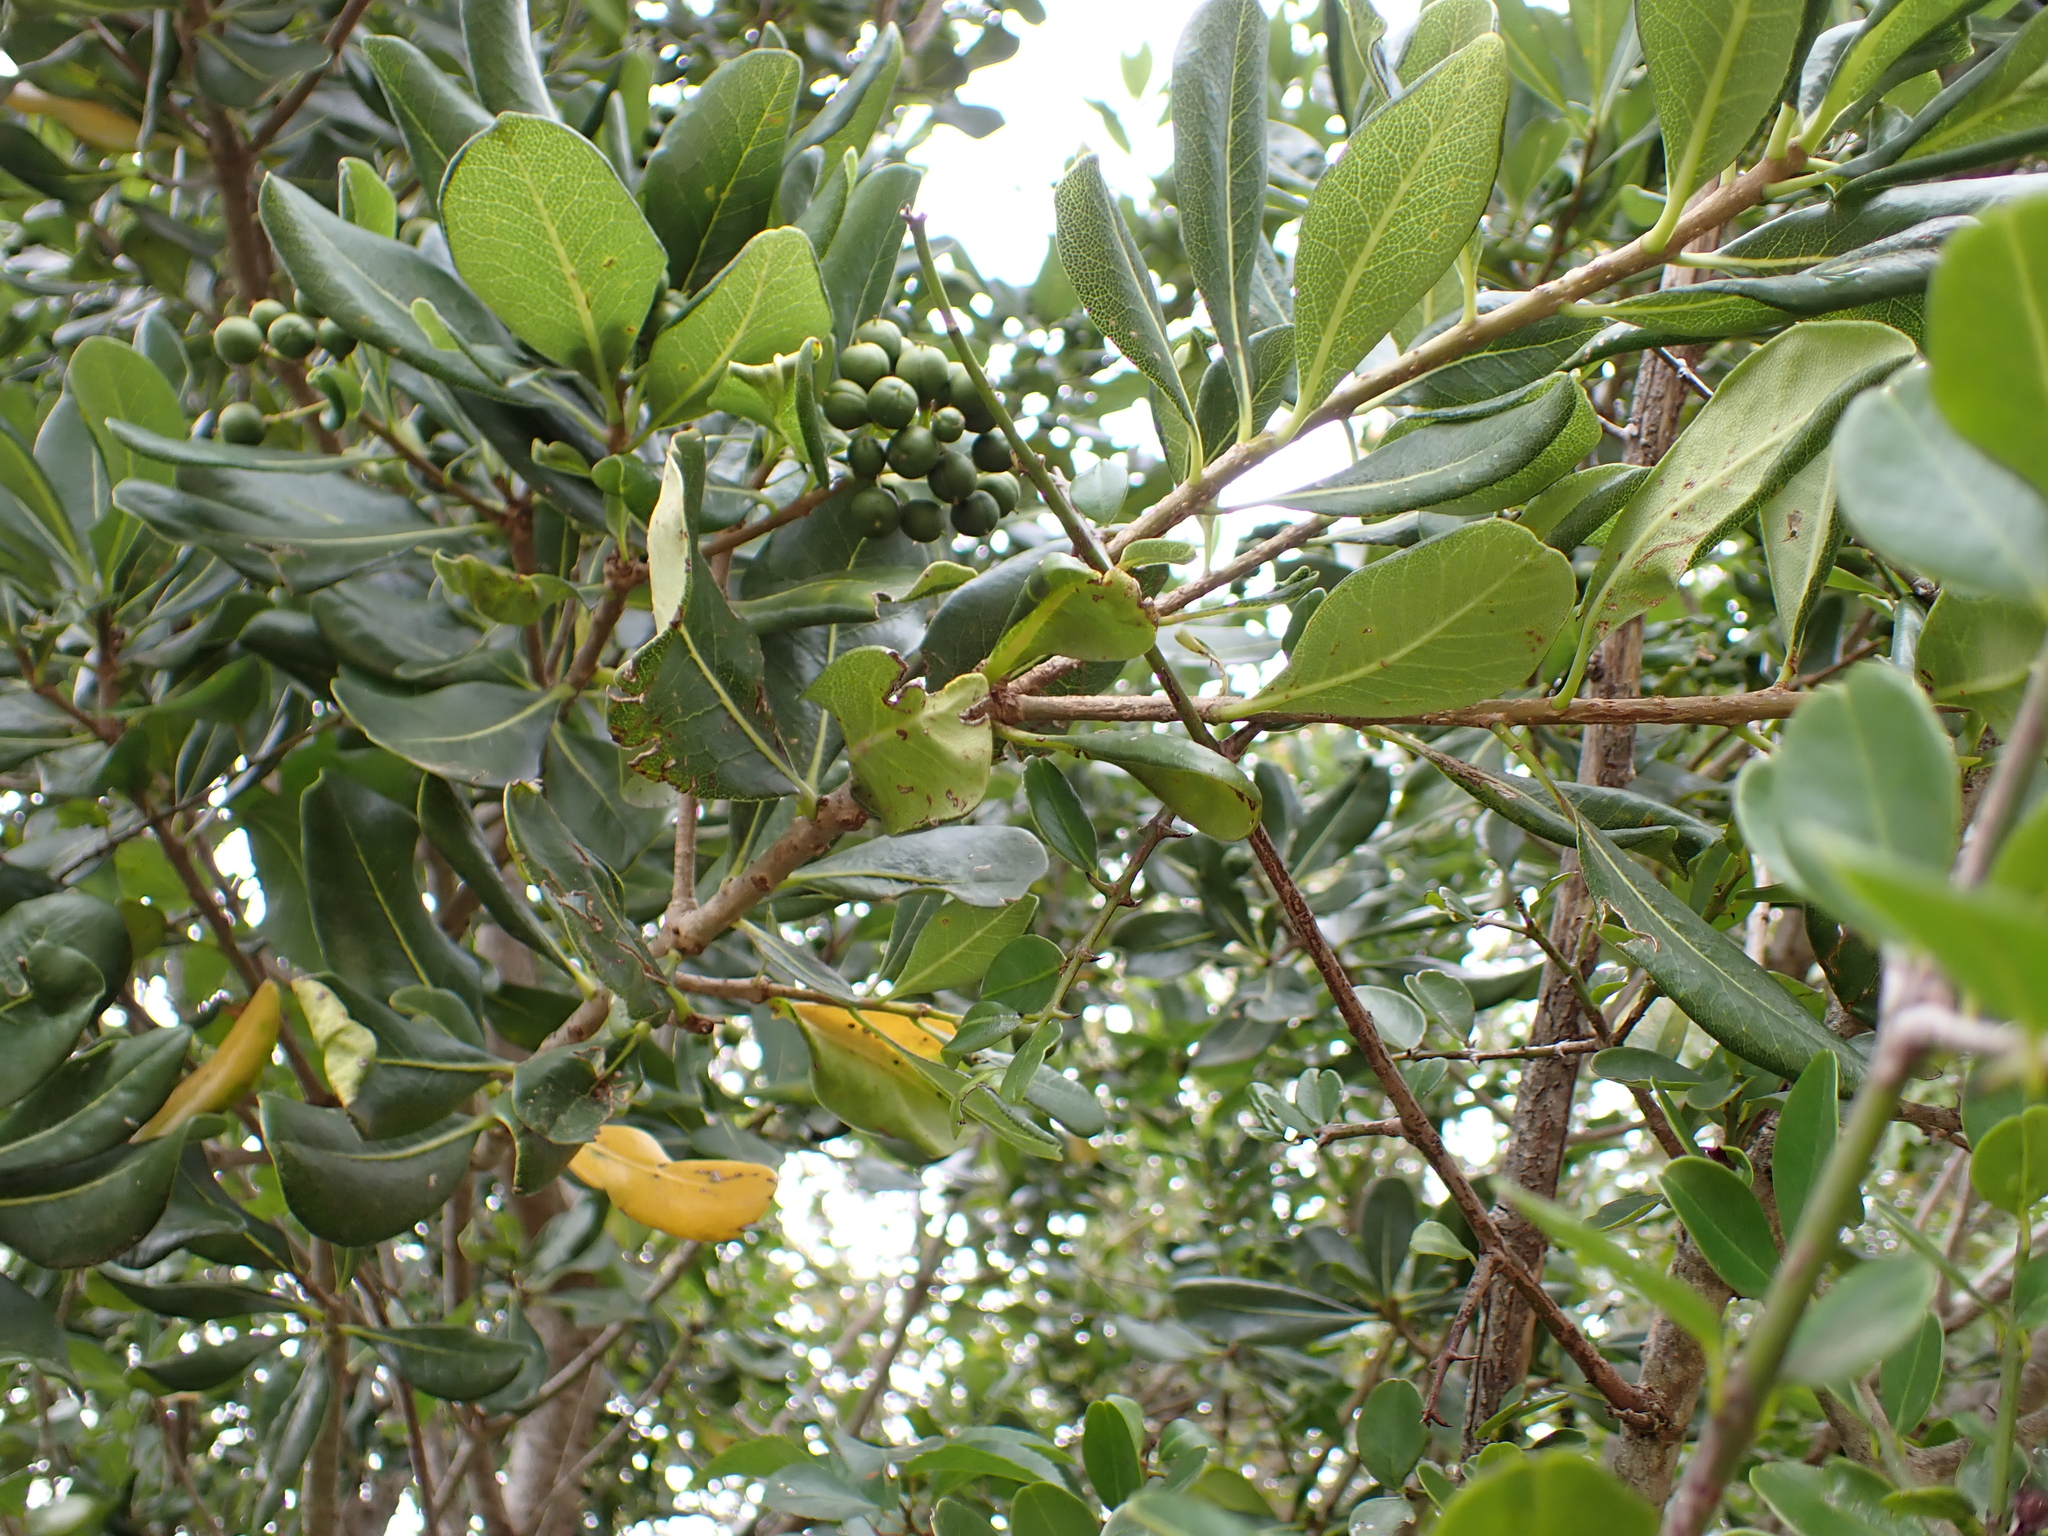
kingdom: Plantae
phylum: Tracheophyta
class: Magnoliopsida
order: Apiales
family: Pittosporaceae
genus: Pittosporum
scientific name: Pittosporum viridiflorum
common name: Cape cheesewood
